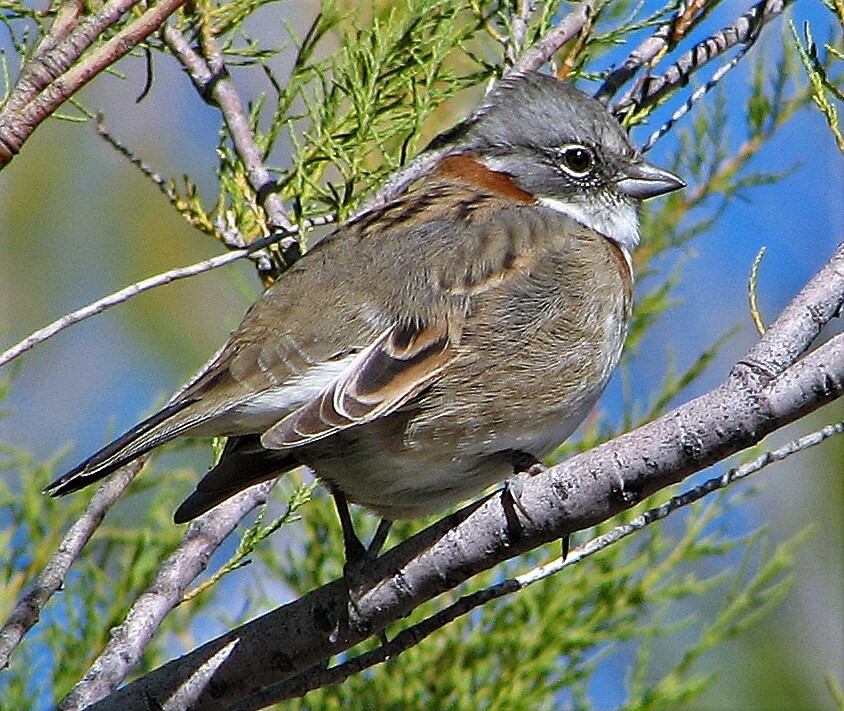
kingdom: Animalia
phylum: Chordata
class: Aves
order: Passeriformes
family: Passerellidae
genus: Zonotrichia
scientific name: Zonotrichia capensis
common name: Rufous-collared sparrow
